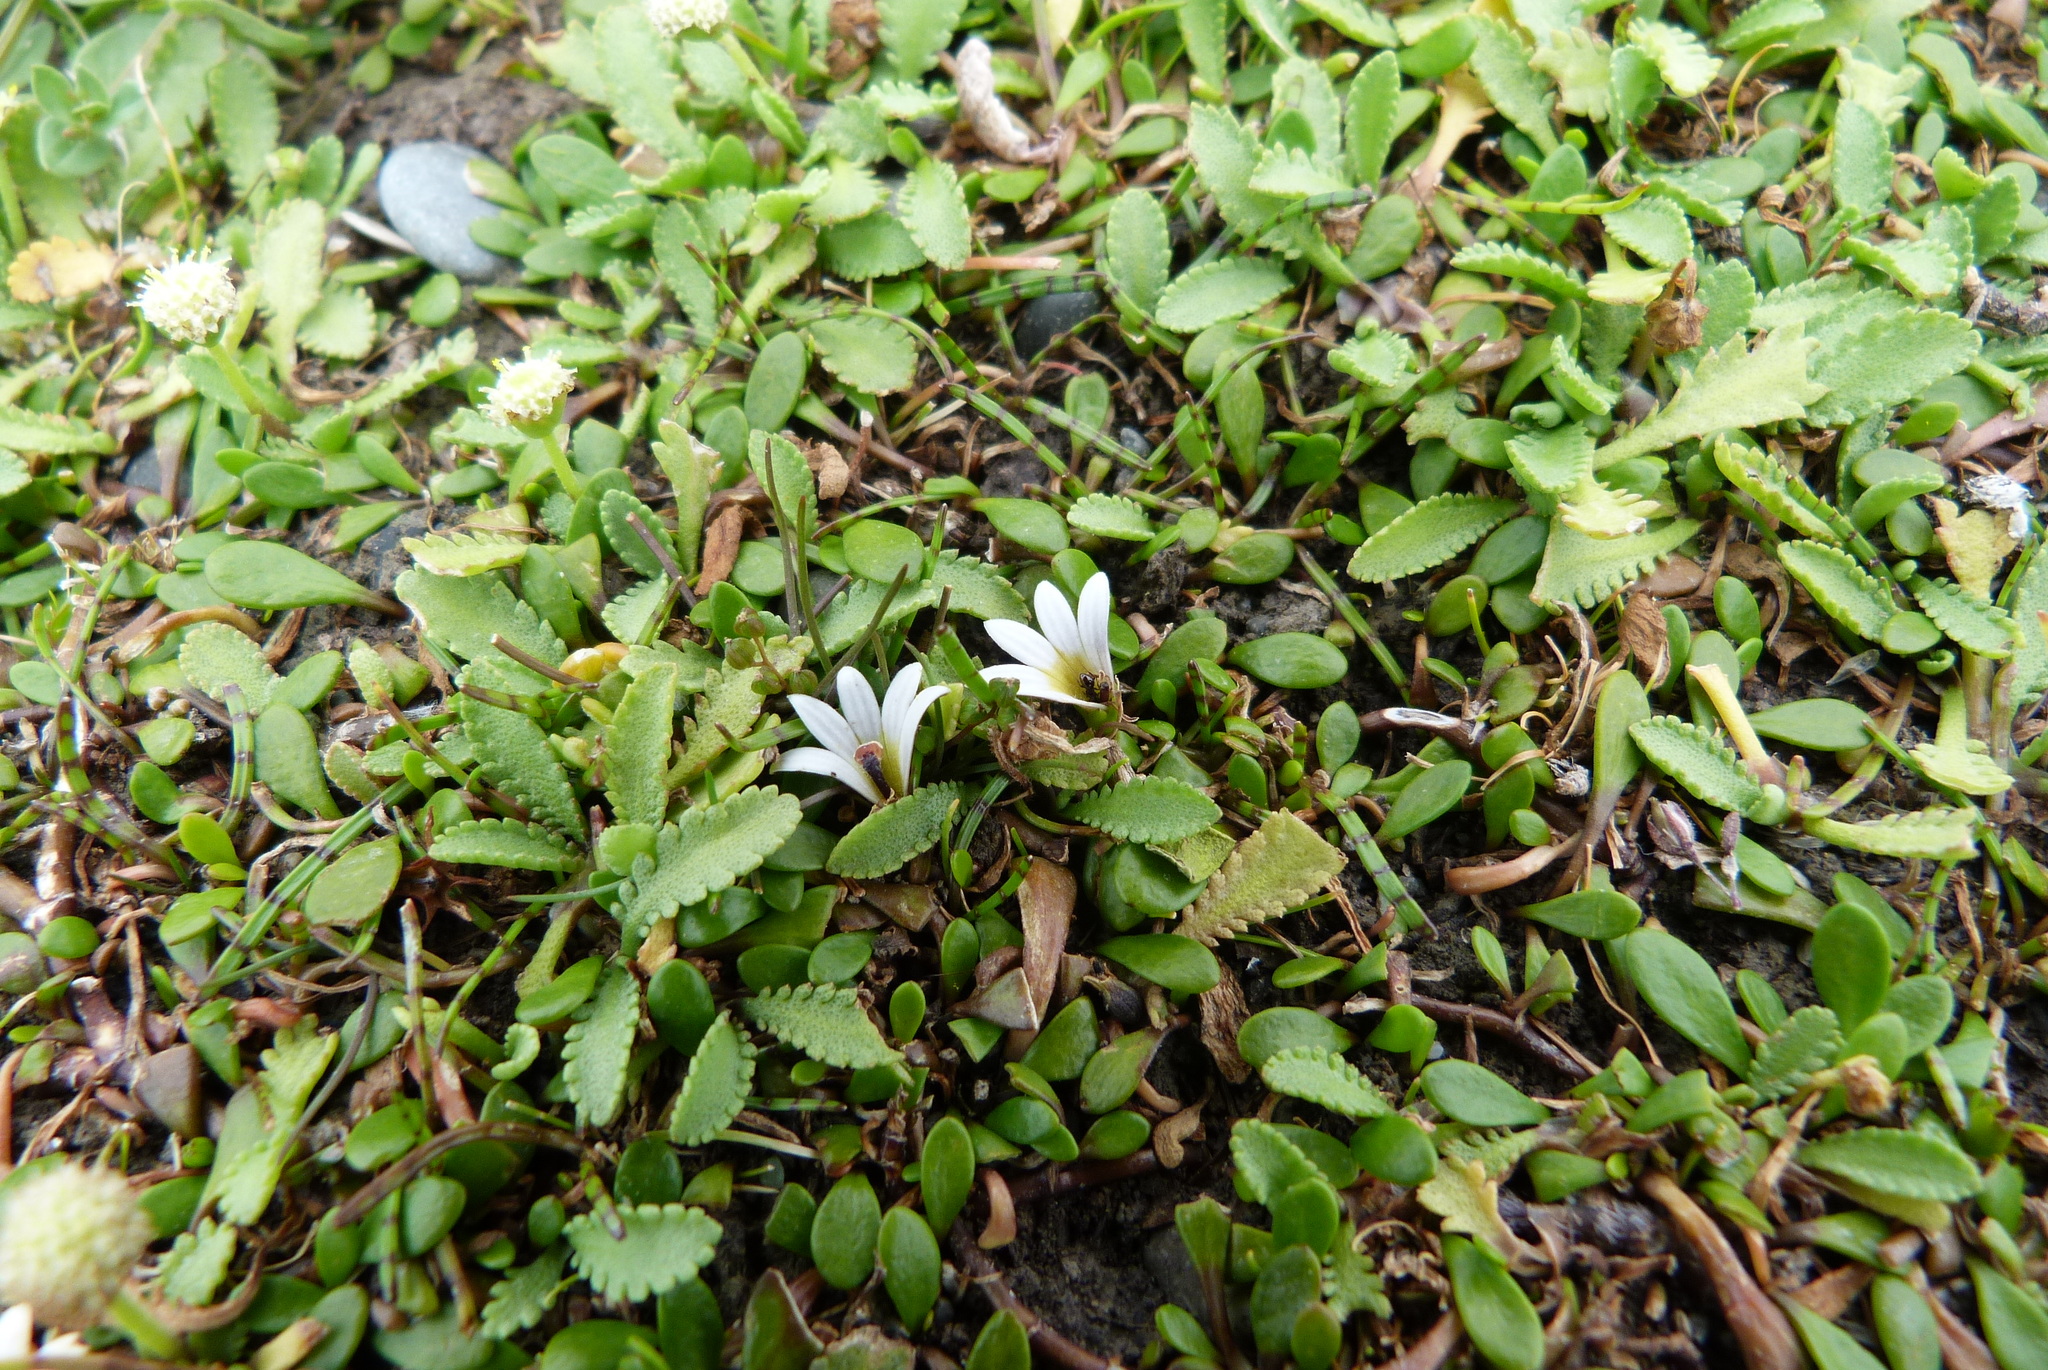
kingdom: Plantae
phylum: Tracheophyta
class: Magnoliopsida
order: Asterales
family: Goodeniaceae
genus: Goodenia
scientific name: Goodenia radicans
